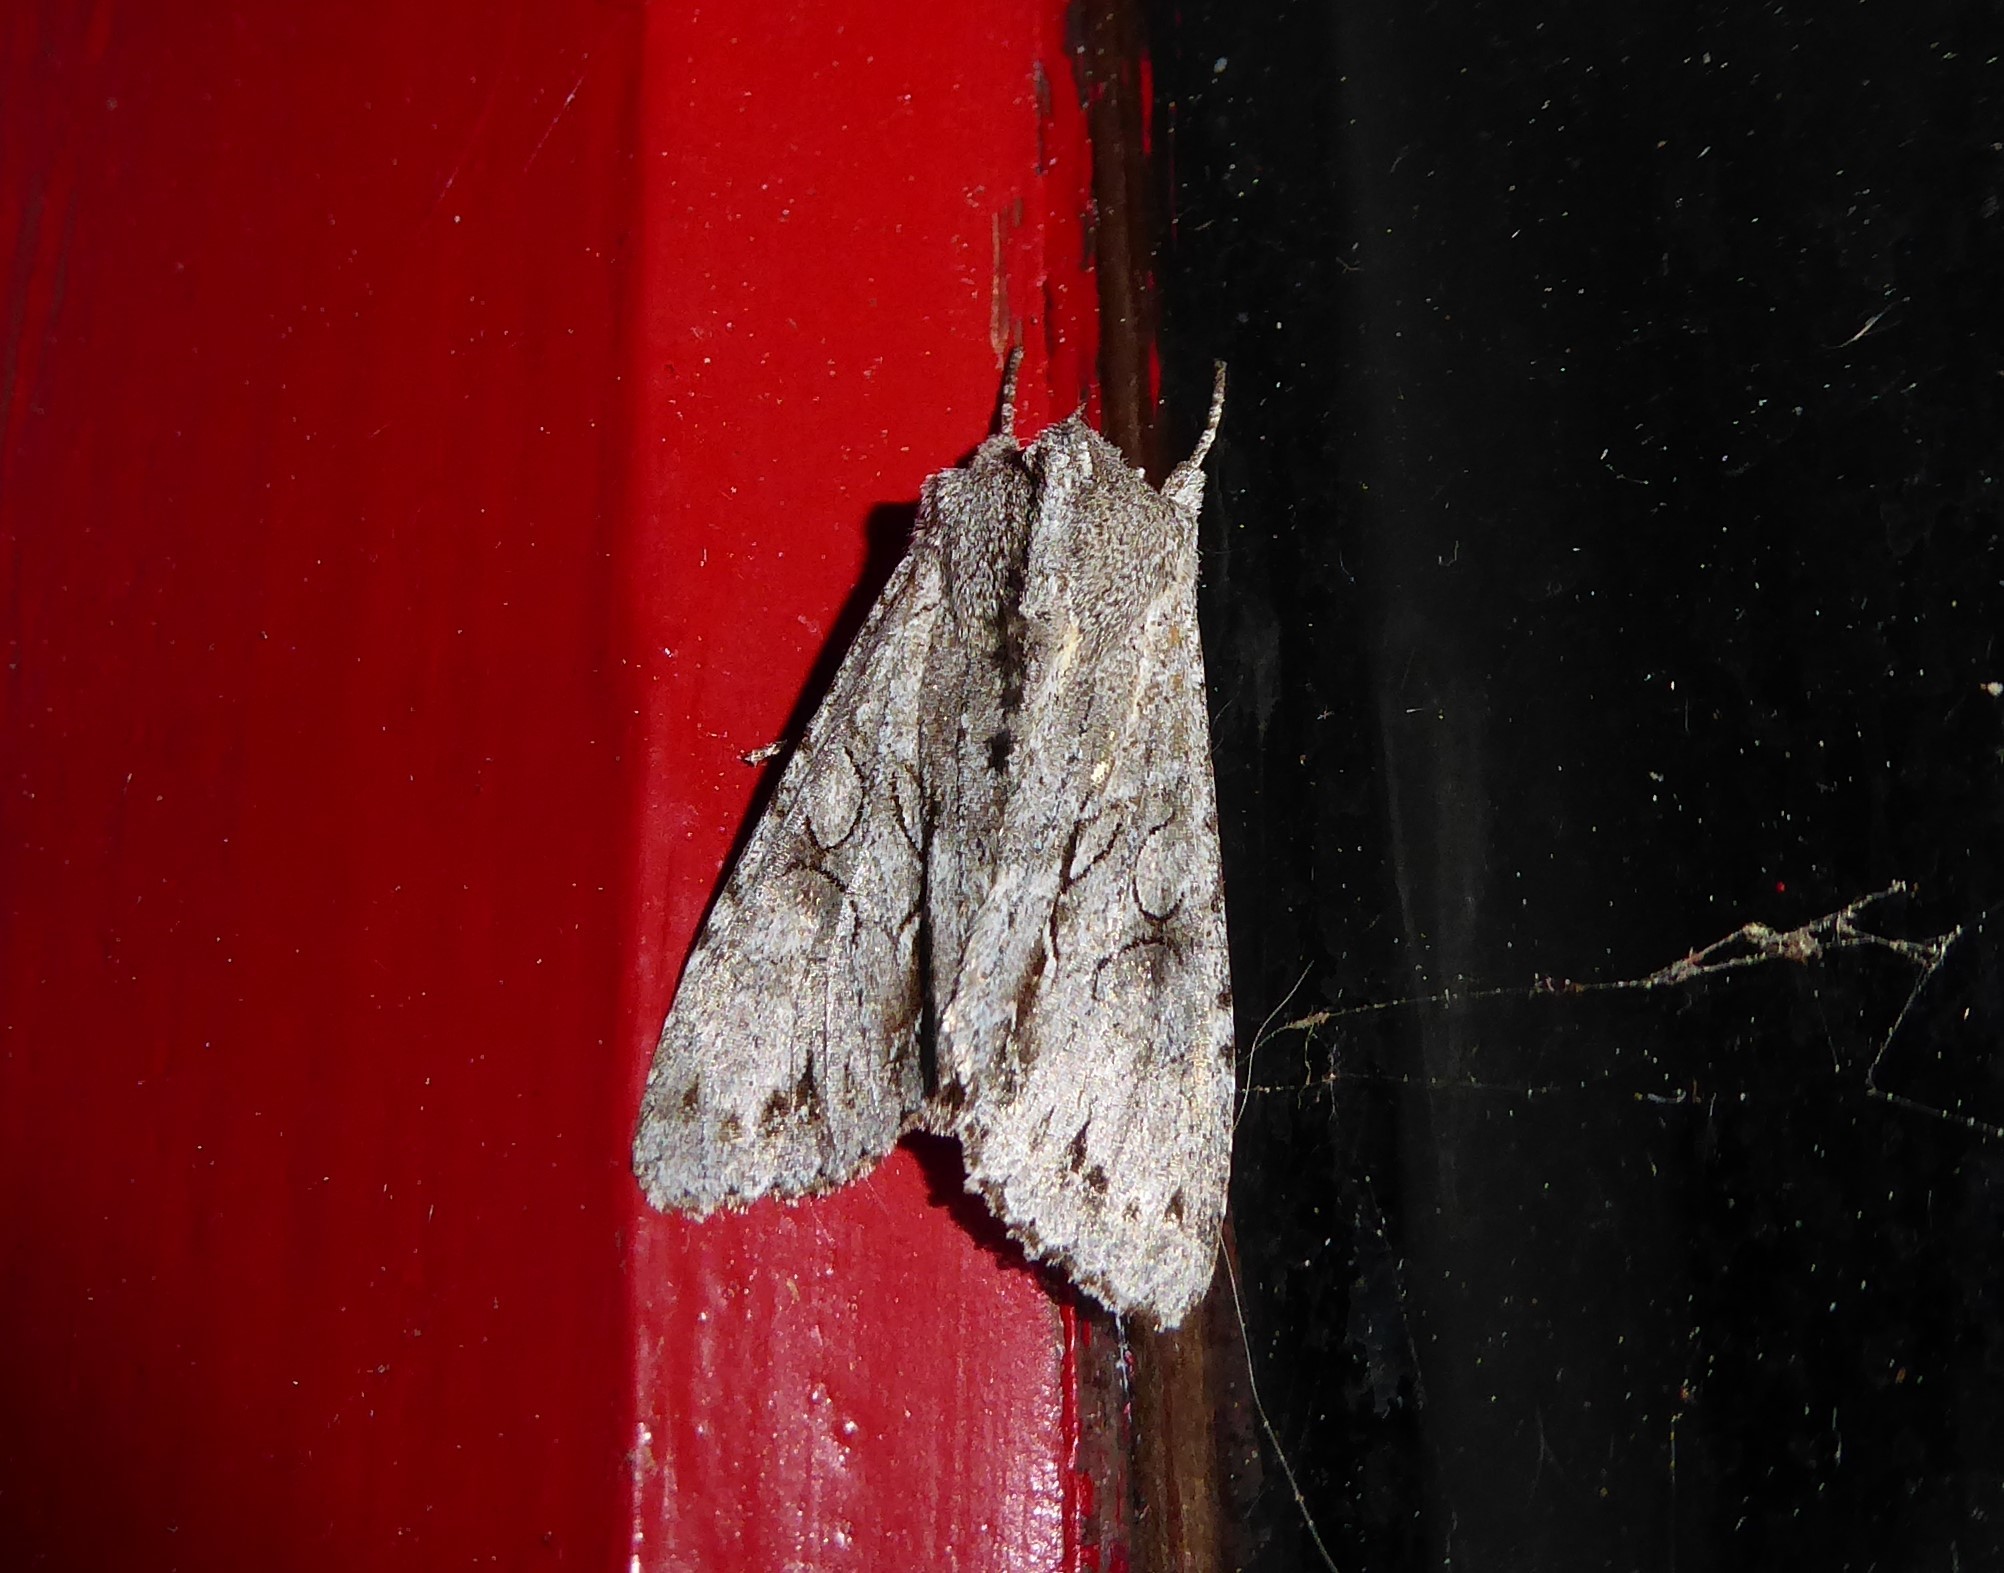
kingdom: Animalia
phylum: Arthropoda
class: Insecta
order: Lepidoptera
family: Noctuidae
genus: Ichneutica
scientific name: Ichneutica
